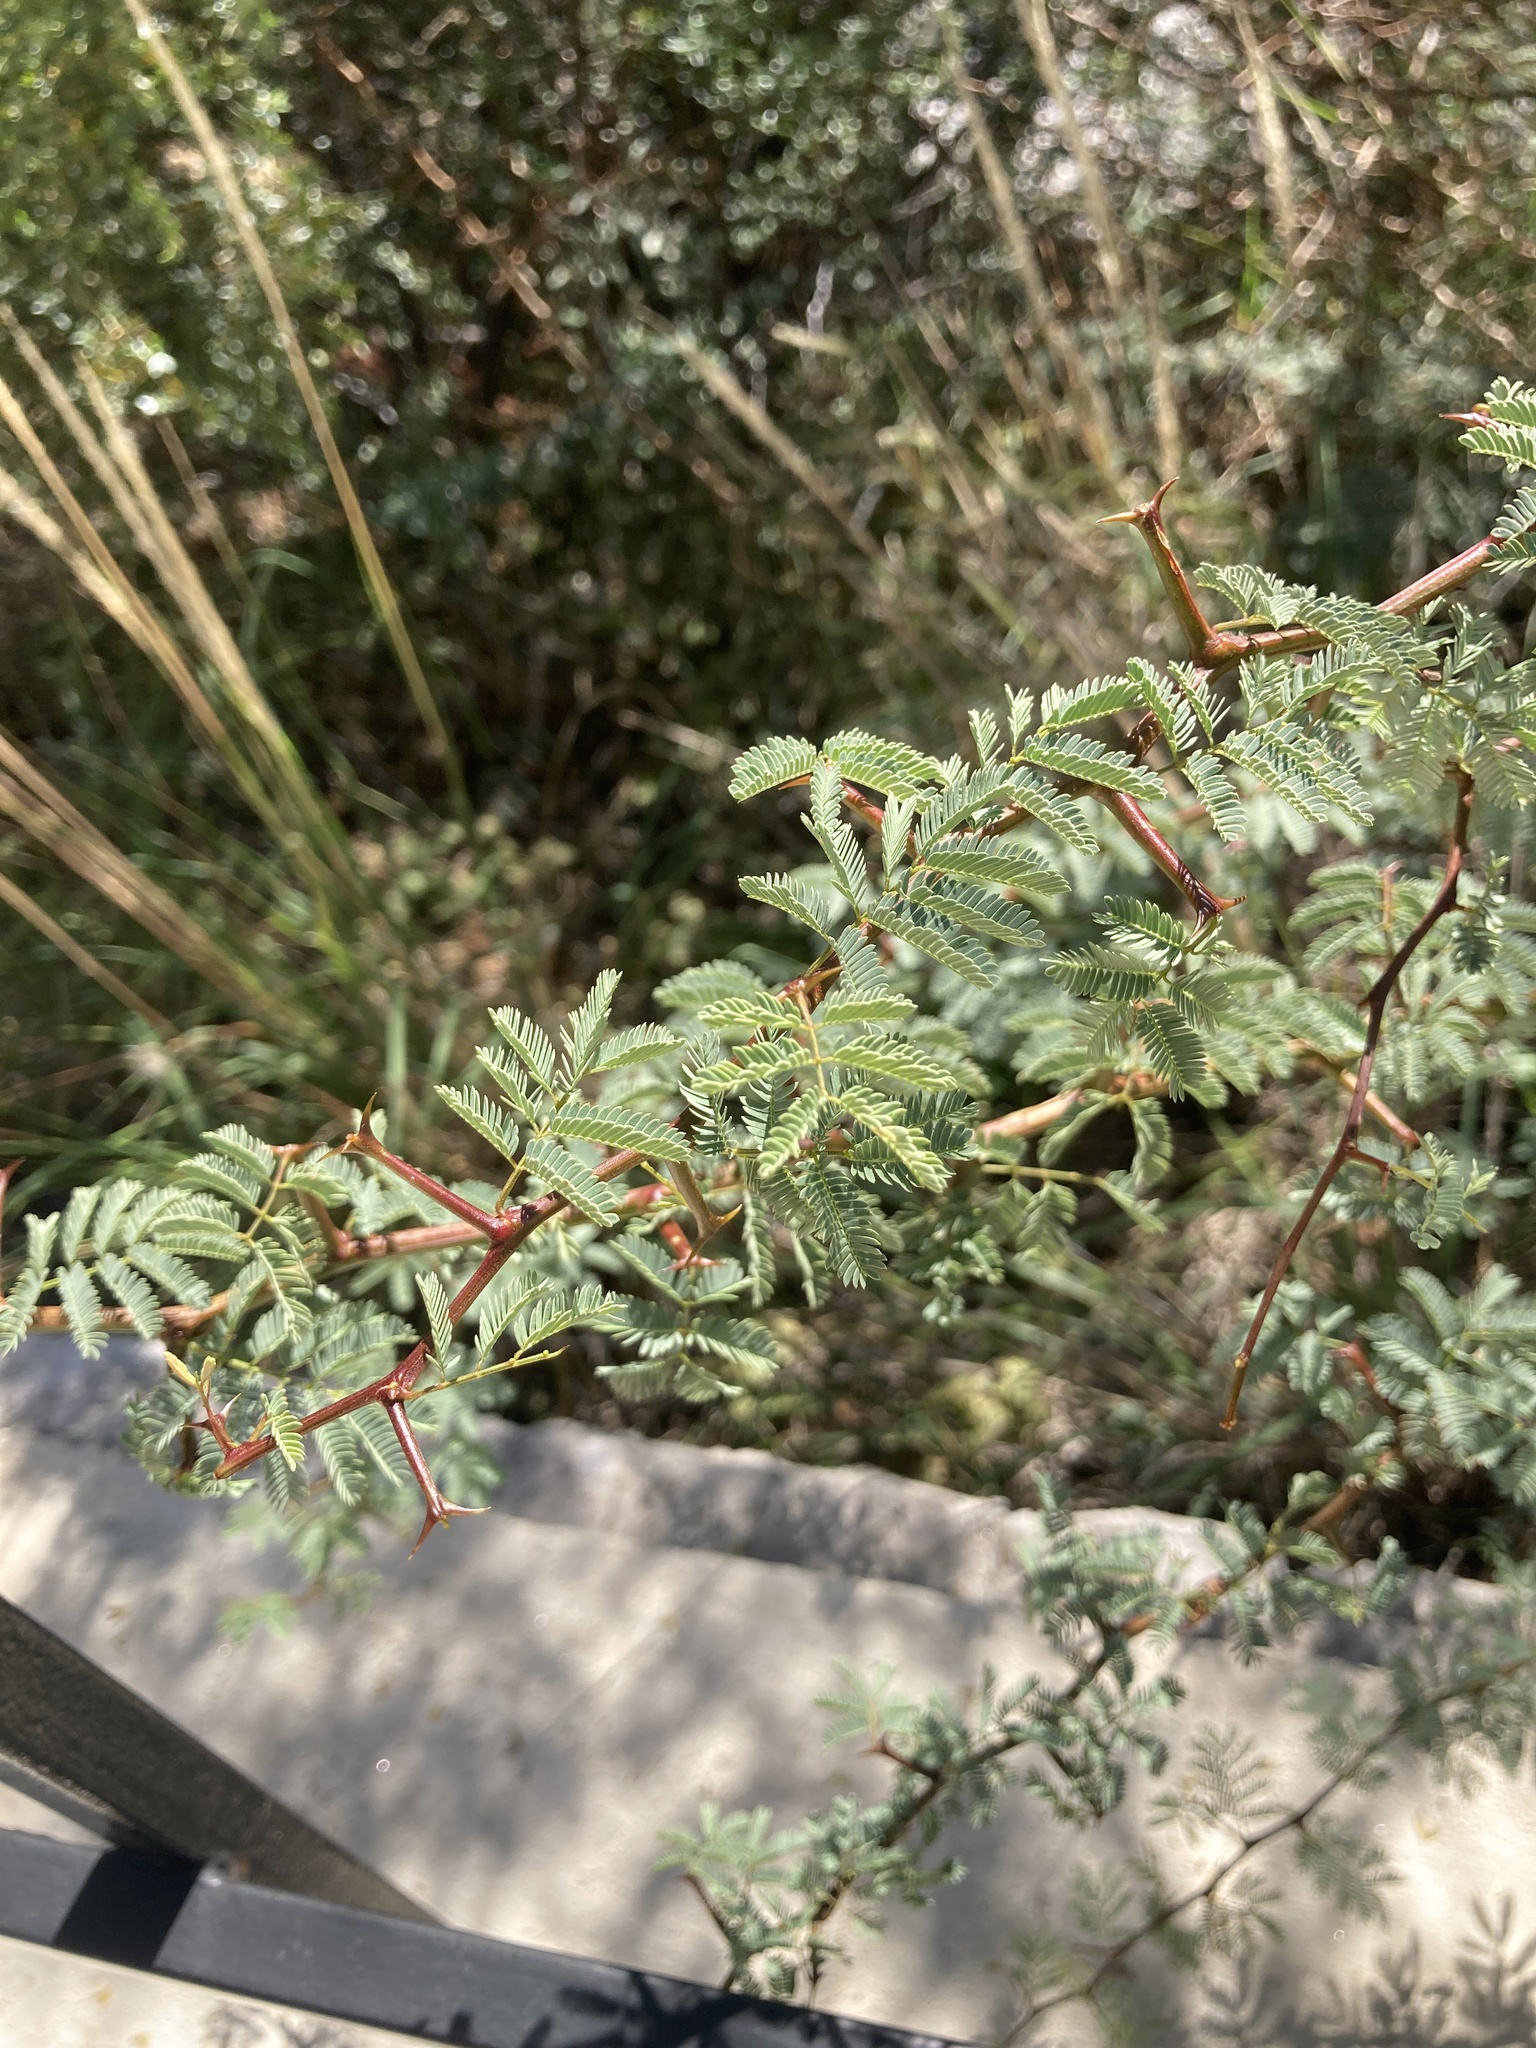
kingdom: Plantae
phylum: Tracheophyta
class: Magnoliopsida
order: Fabales
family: Fabaceae
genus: Senegalia
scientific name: Senegalia gilliesii
